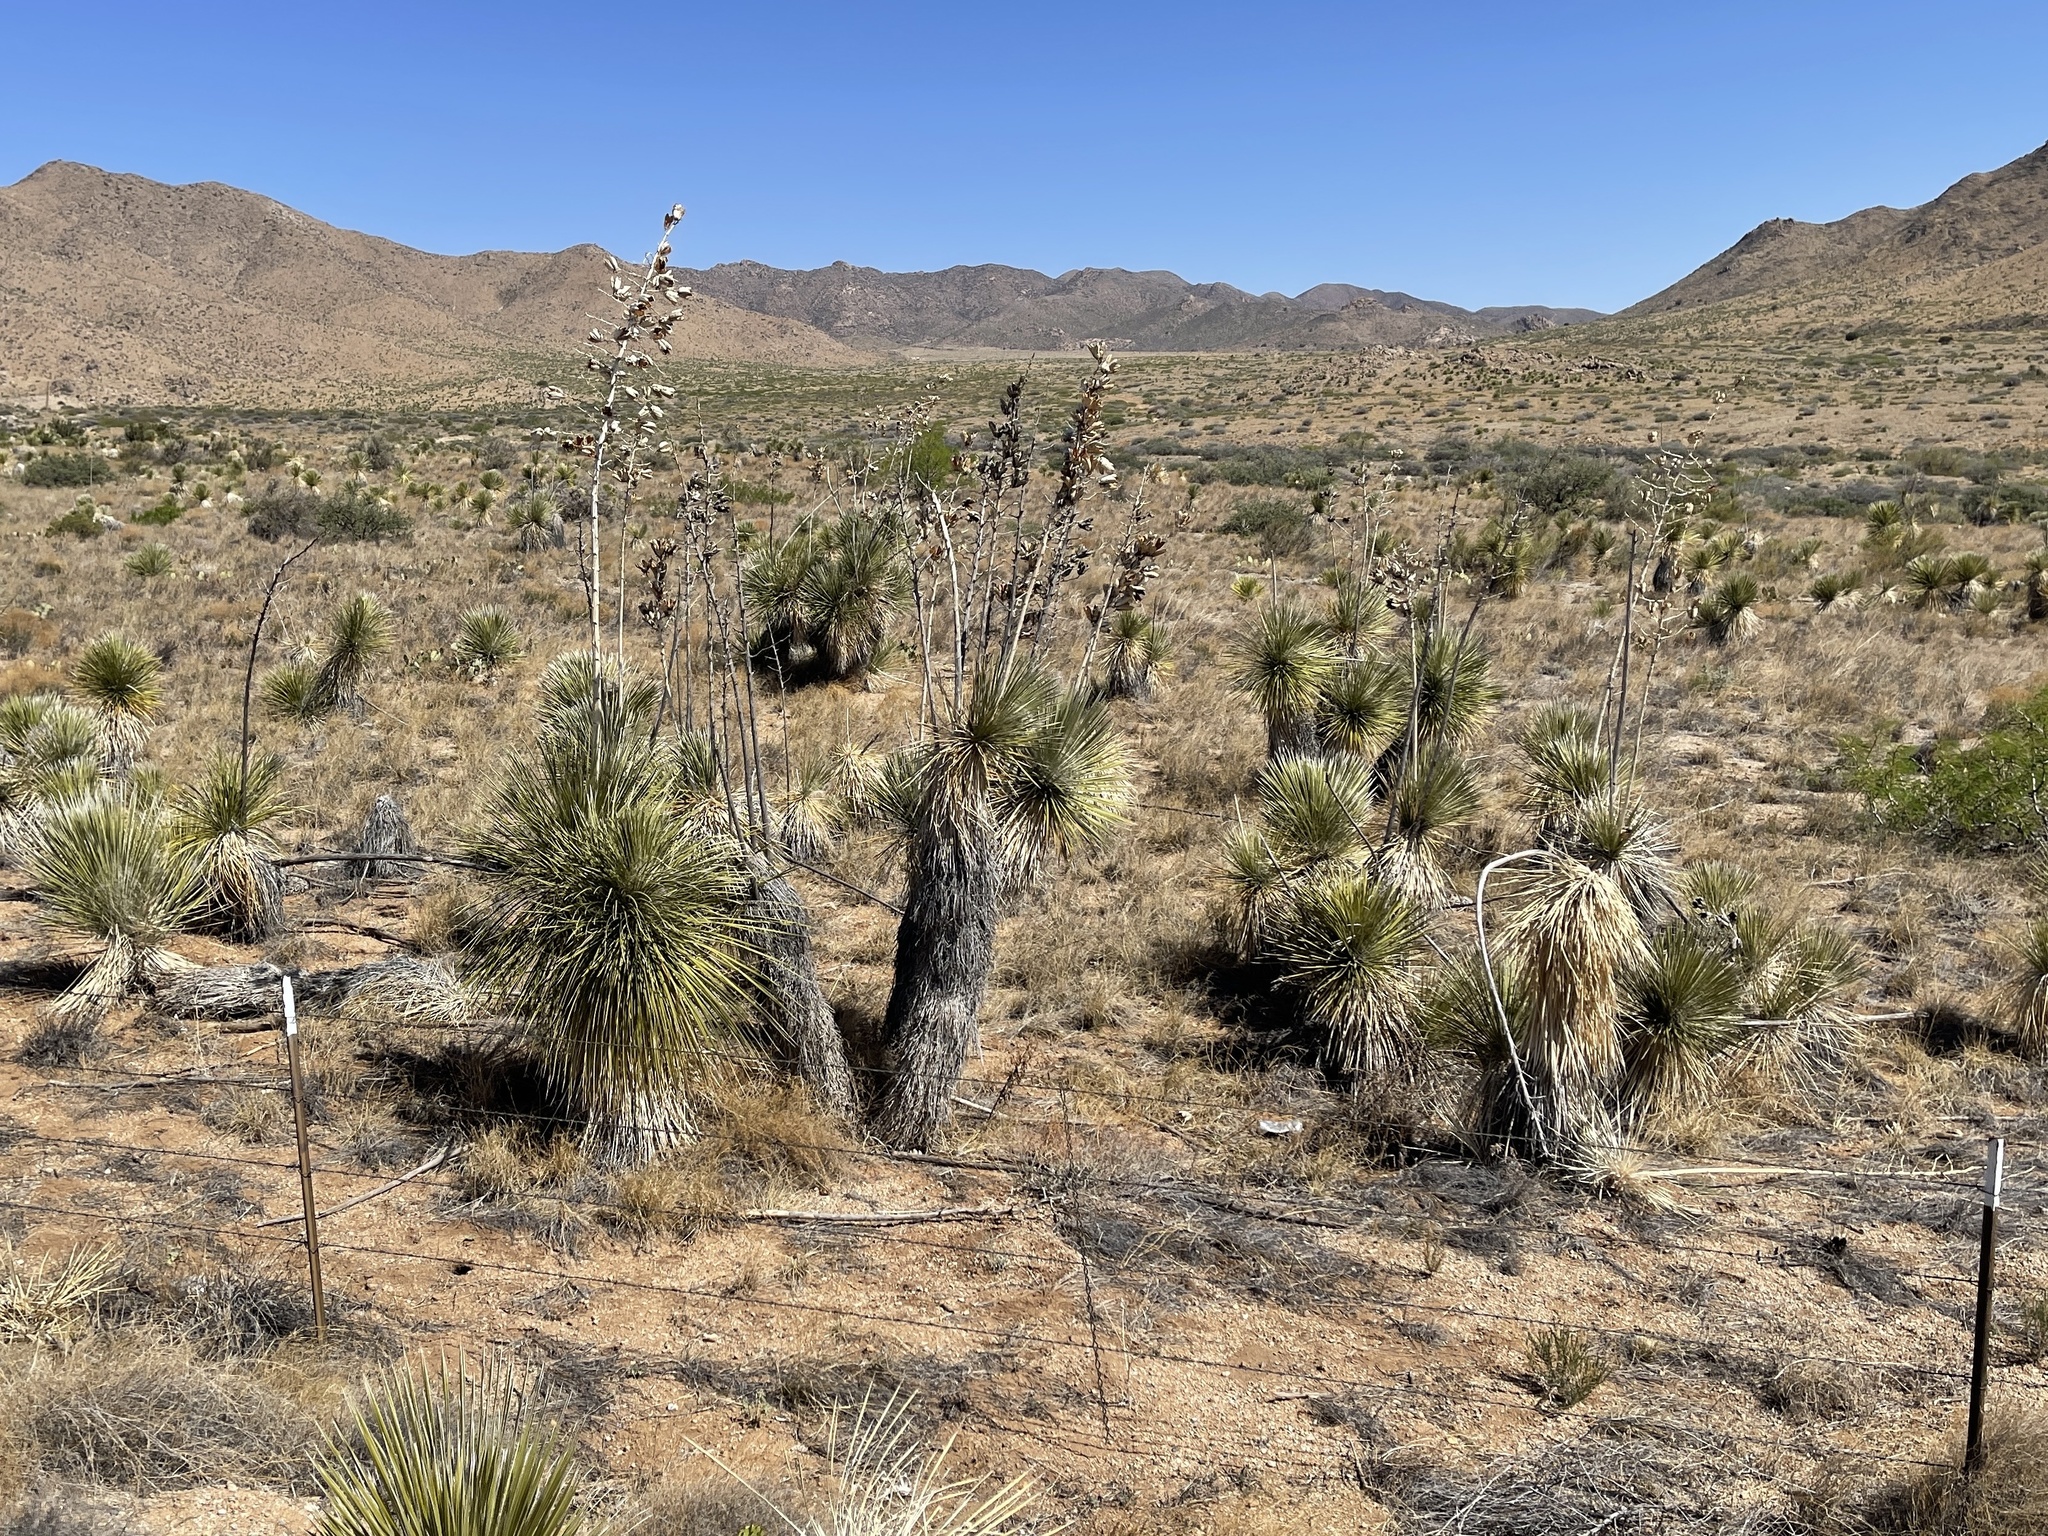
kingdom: Plantae
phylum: Tracheophyta
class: Liliopsida
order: Asparagales
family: Asparagaceae
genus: Yucca
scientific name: Yucca elata
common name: Palmella
